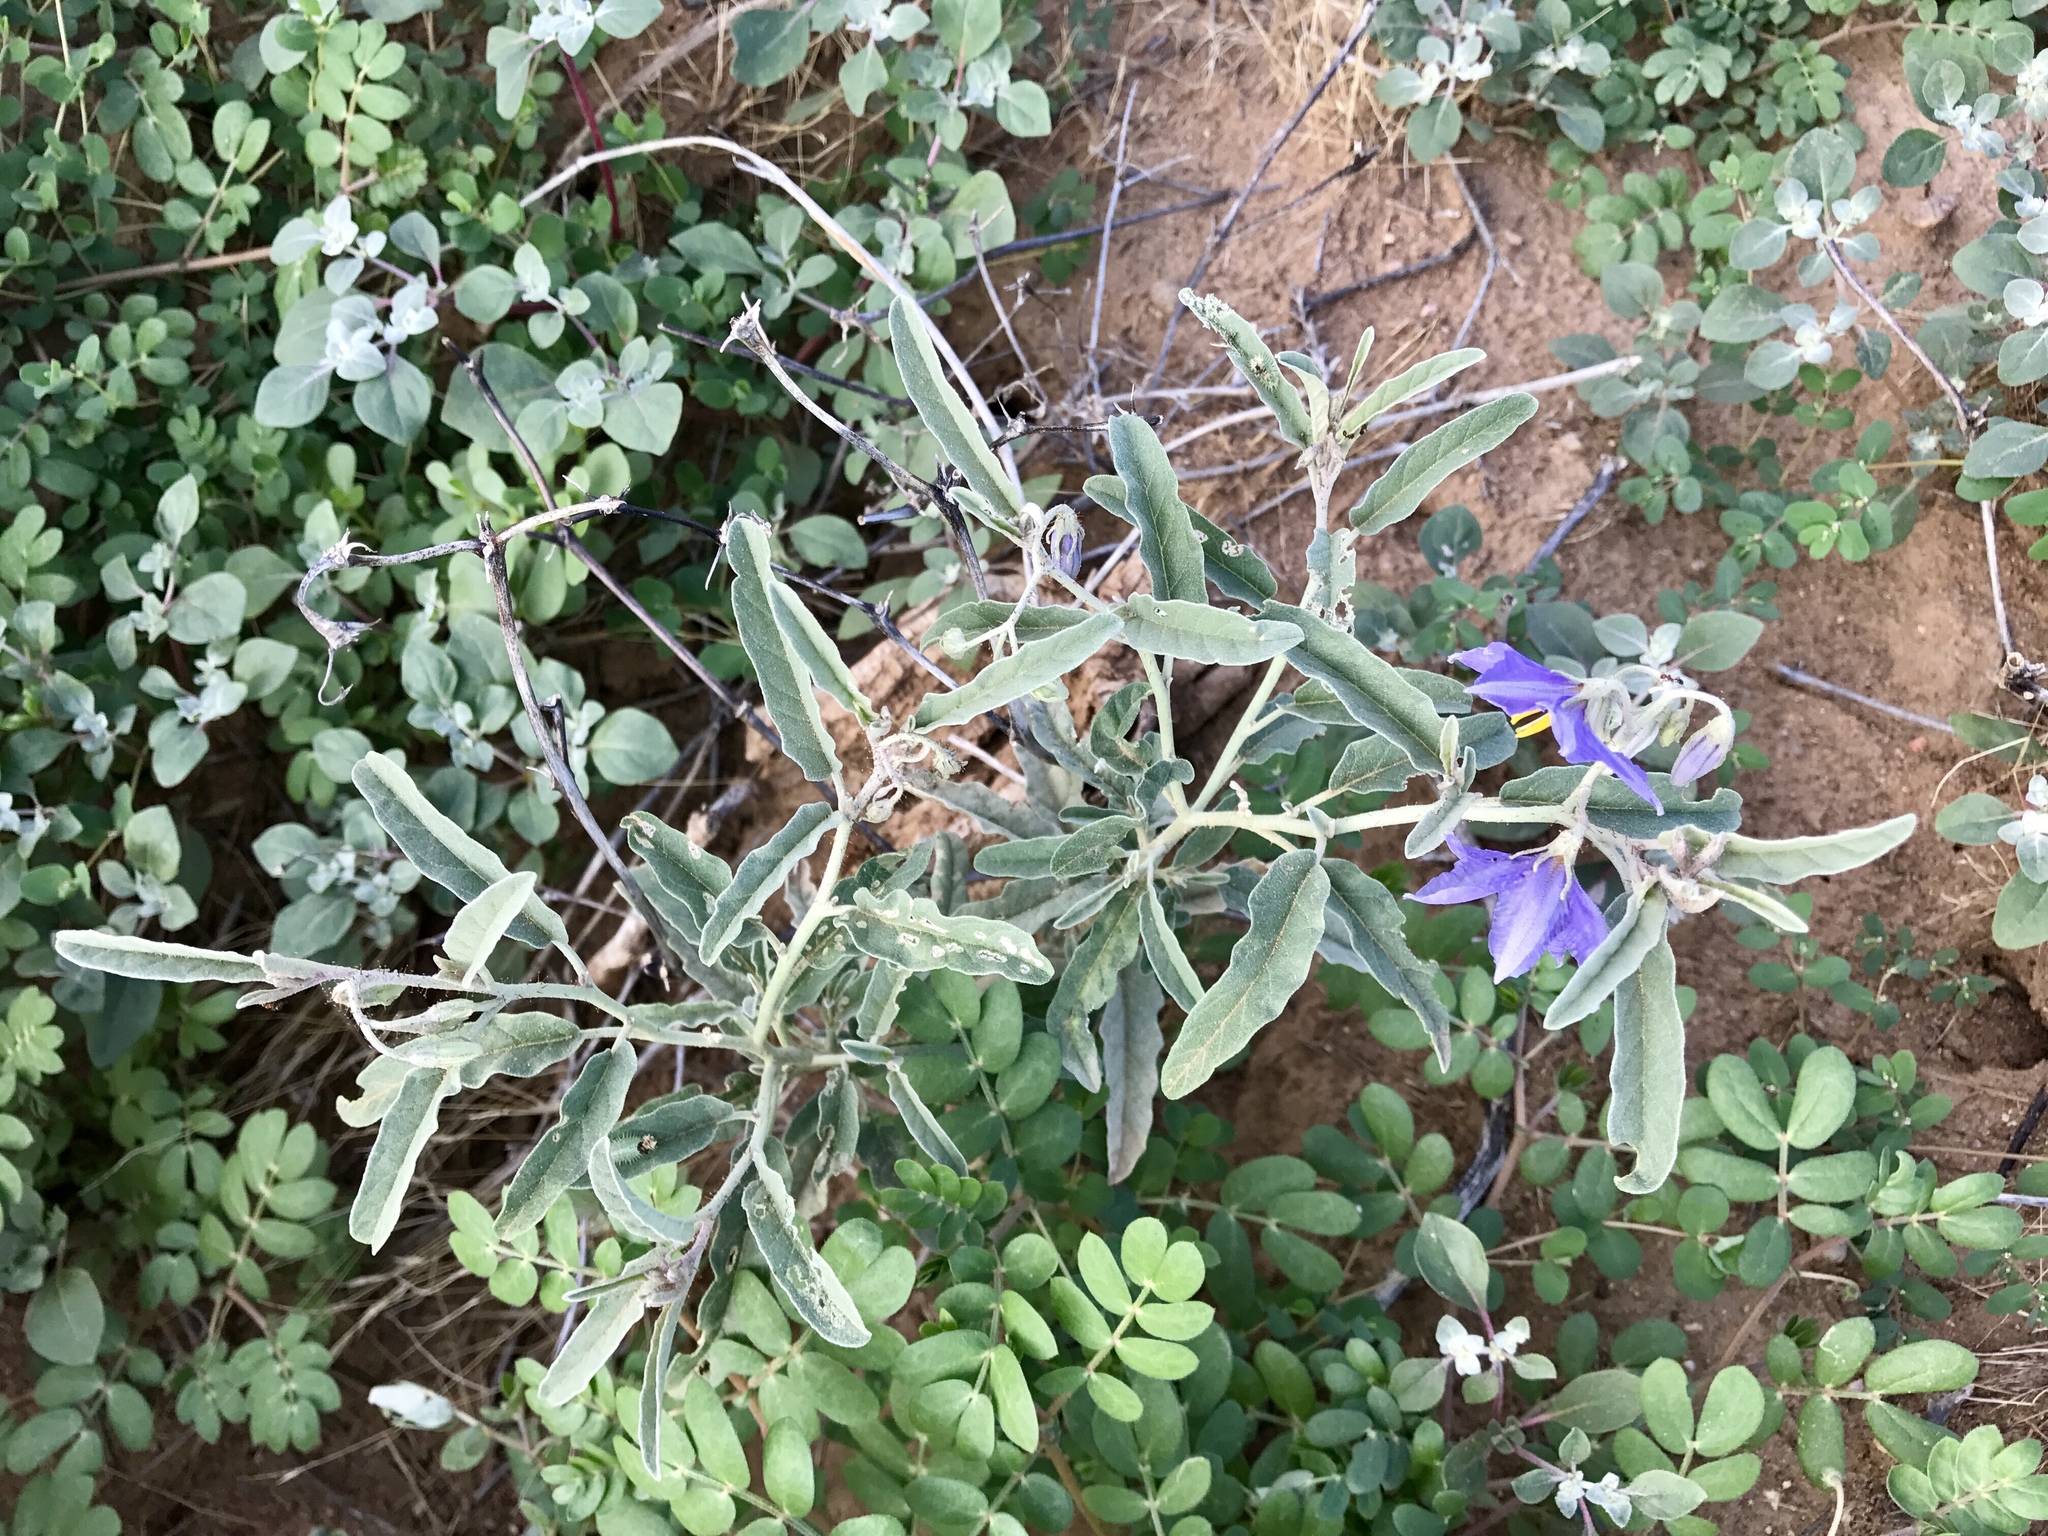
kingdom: Plantae
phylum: Tracheophyta
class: Magnoliopsida
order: Solanales
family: Solanaceae
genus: Solanum
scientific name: Solanum elaeagnifolium
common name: Silverleaf nightshade
